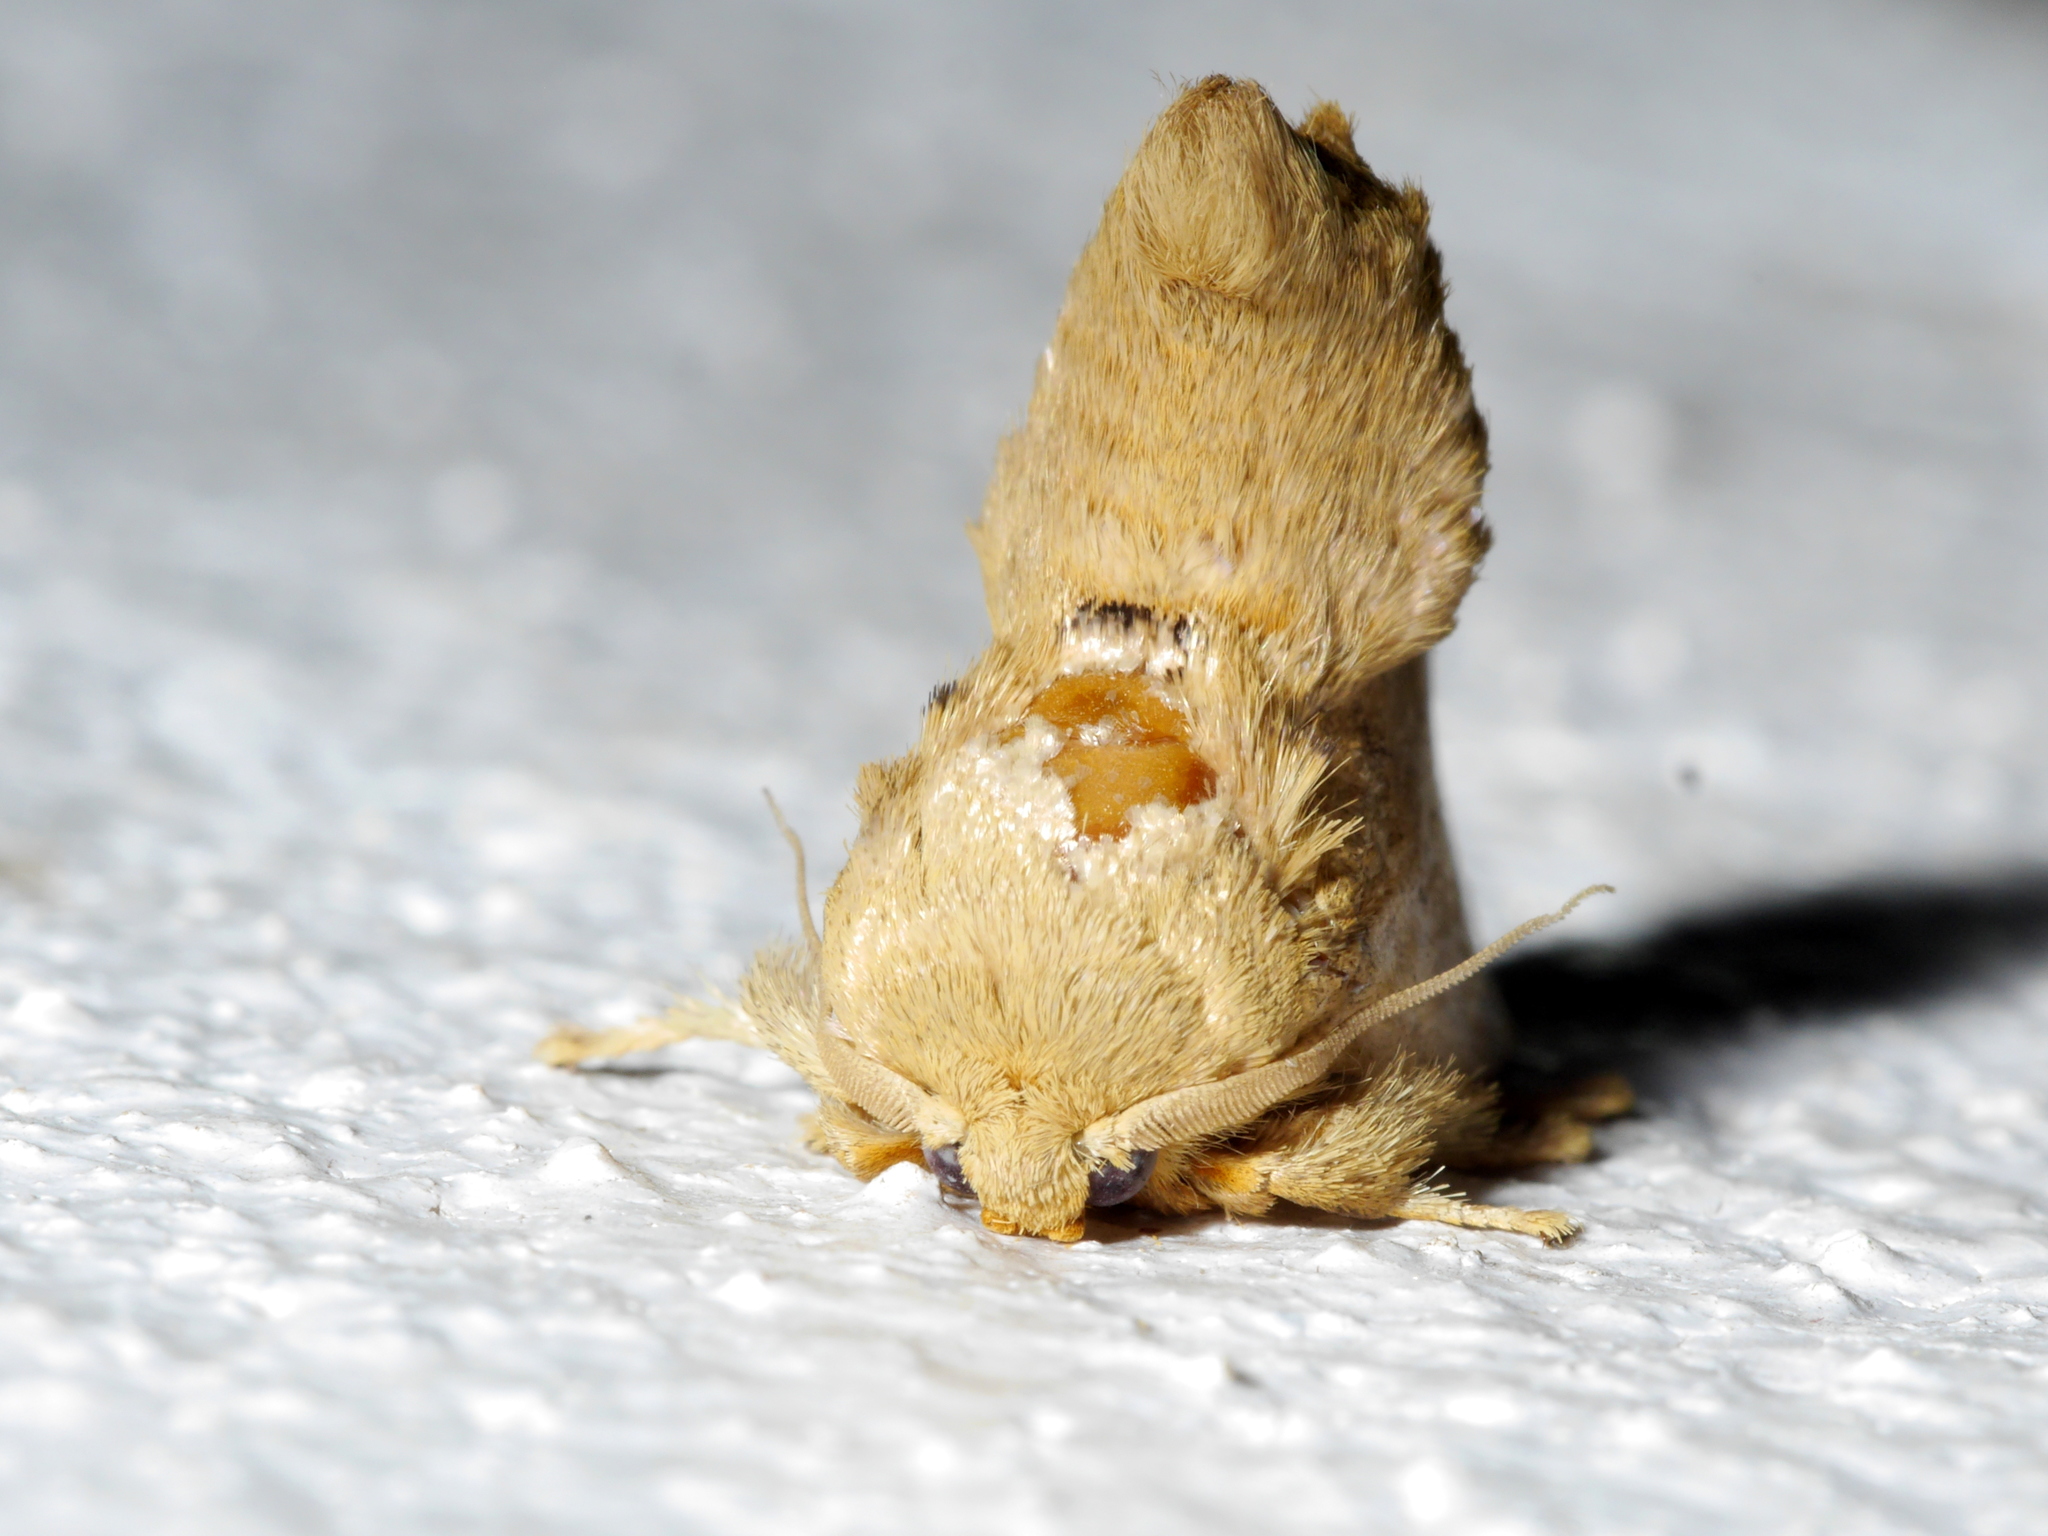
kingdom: Animalia
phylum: Arthropoda
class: Insecta
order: Lepidoptera
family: Limacodidae
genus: Rhypteira
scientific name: Rhypteira sordida
